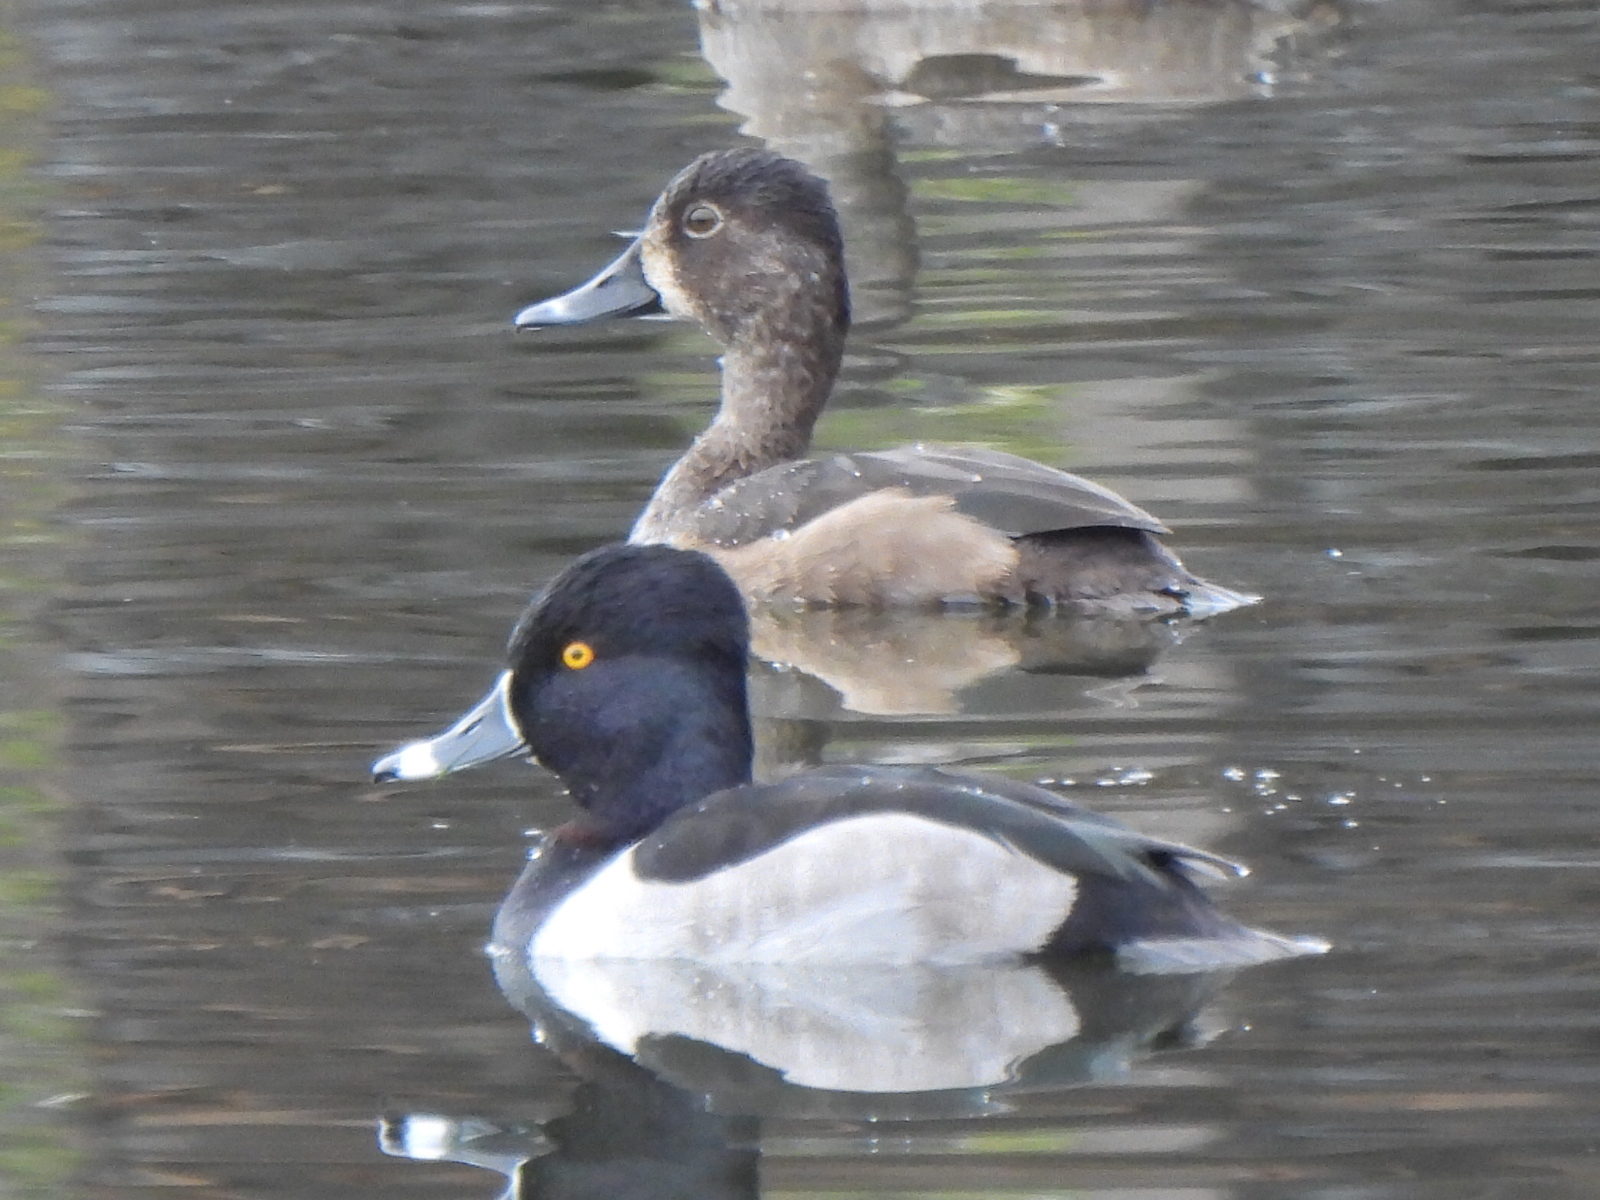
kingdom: Animalia
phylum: Chordata
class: Aves
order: Anseriformes
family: Anatidae
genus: Aythya
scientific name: Aythya collaris
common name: Ring-necked duck
